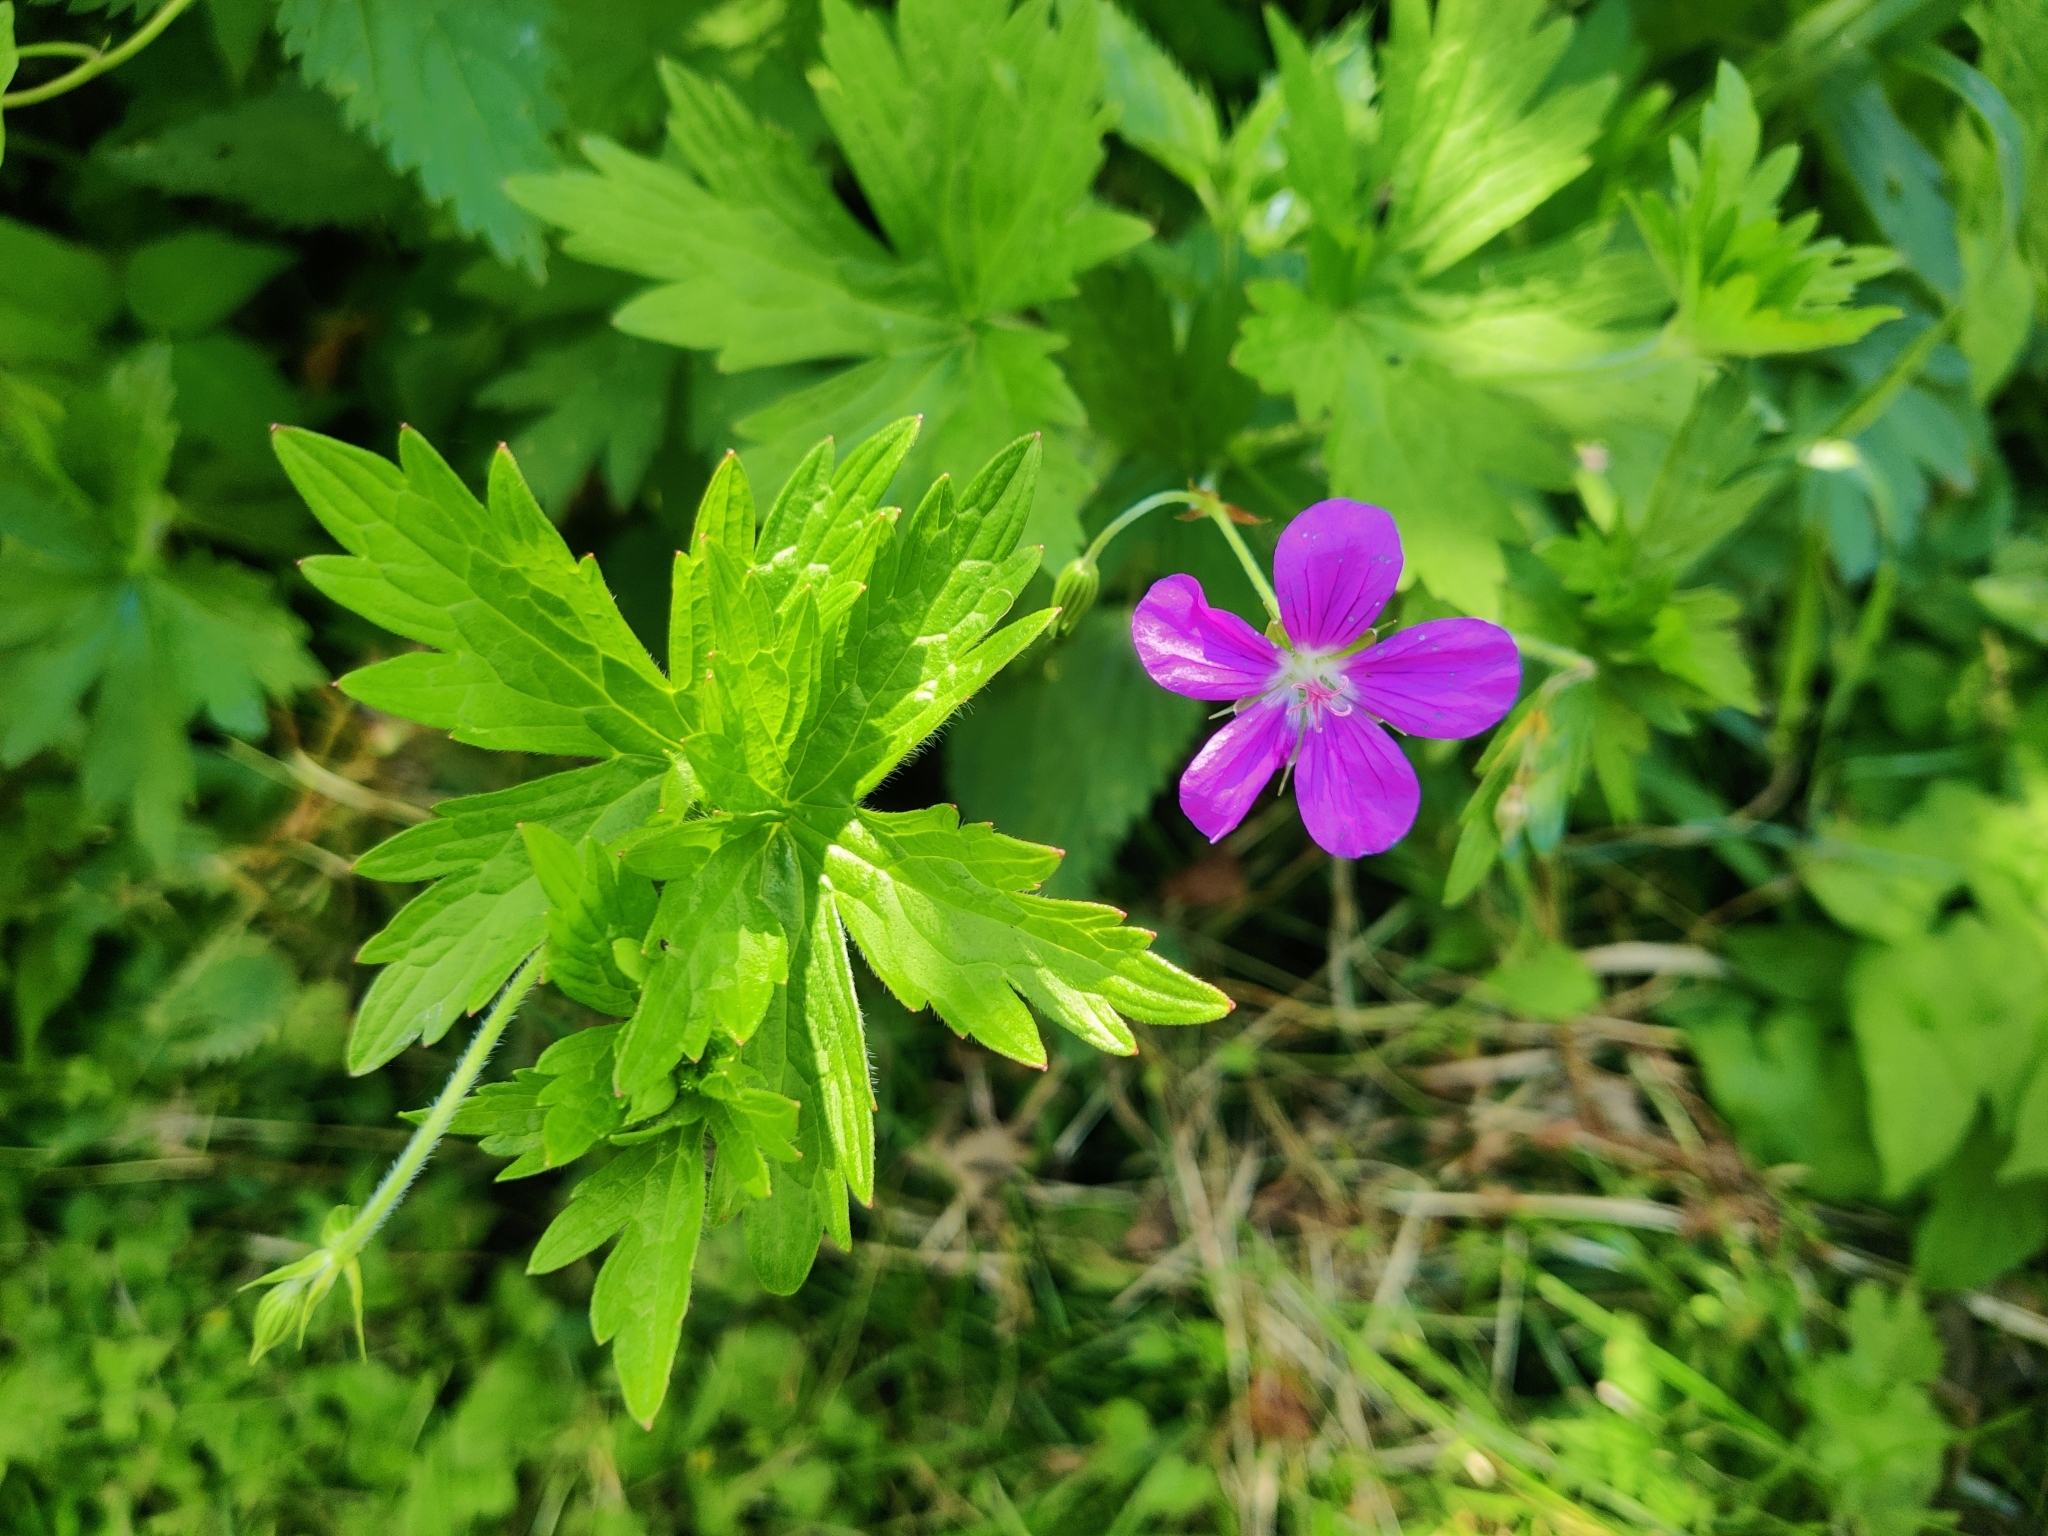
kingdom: Plantae
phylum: Tracheophyta
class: Magnoliopsida
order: Geraniales
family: Geraniaceae
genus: Geranium
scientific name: Geranium palustre
